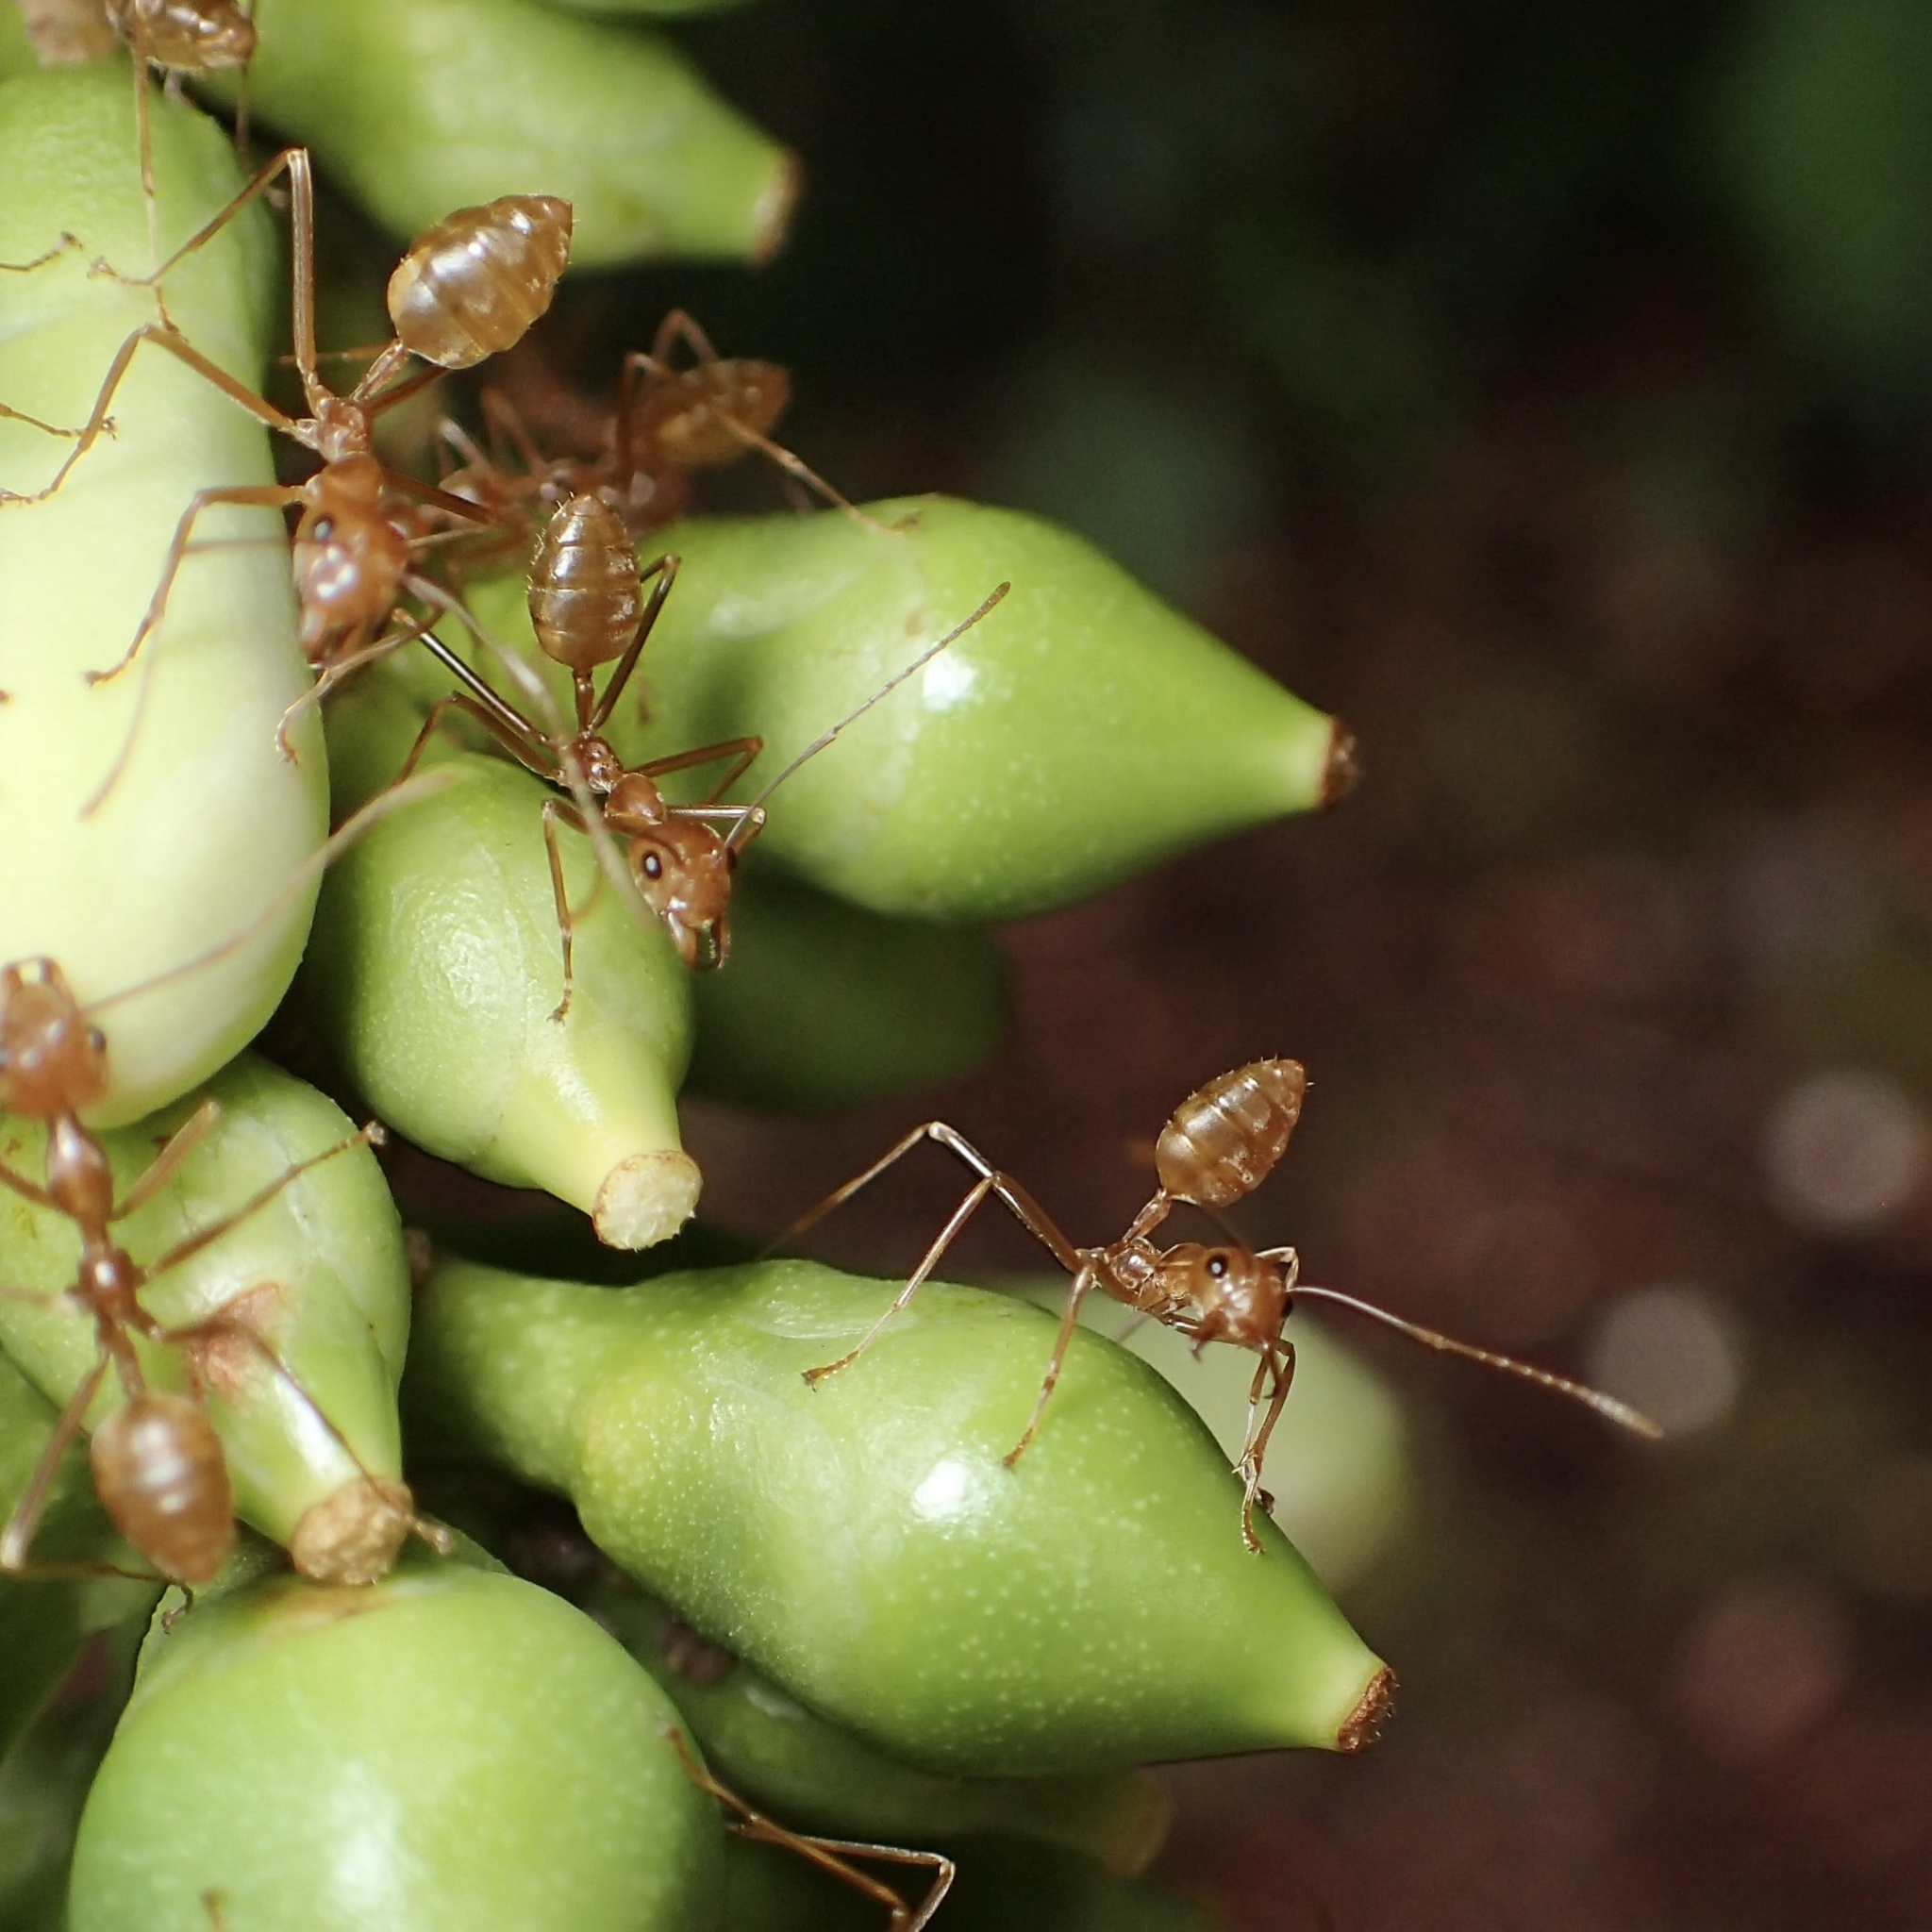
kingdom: Animalia
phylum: Arthropoda
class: Insecta
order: Hymenoptera
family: Formicidae
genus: Oecophylla
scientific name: Oecophylla smaragdina
